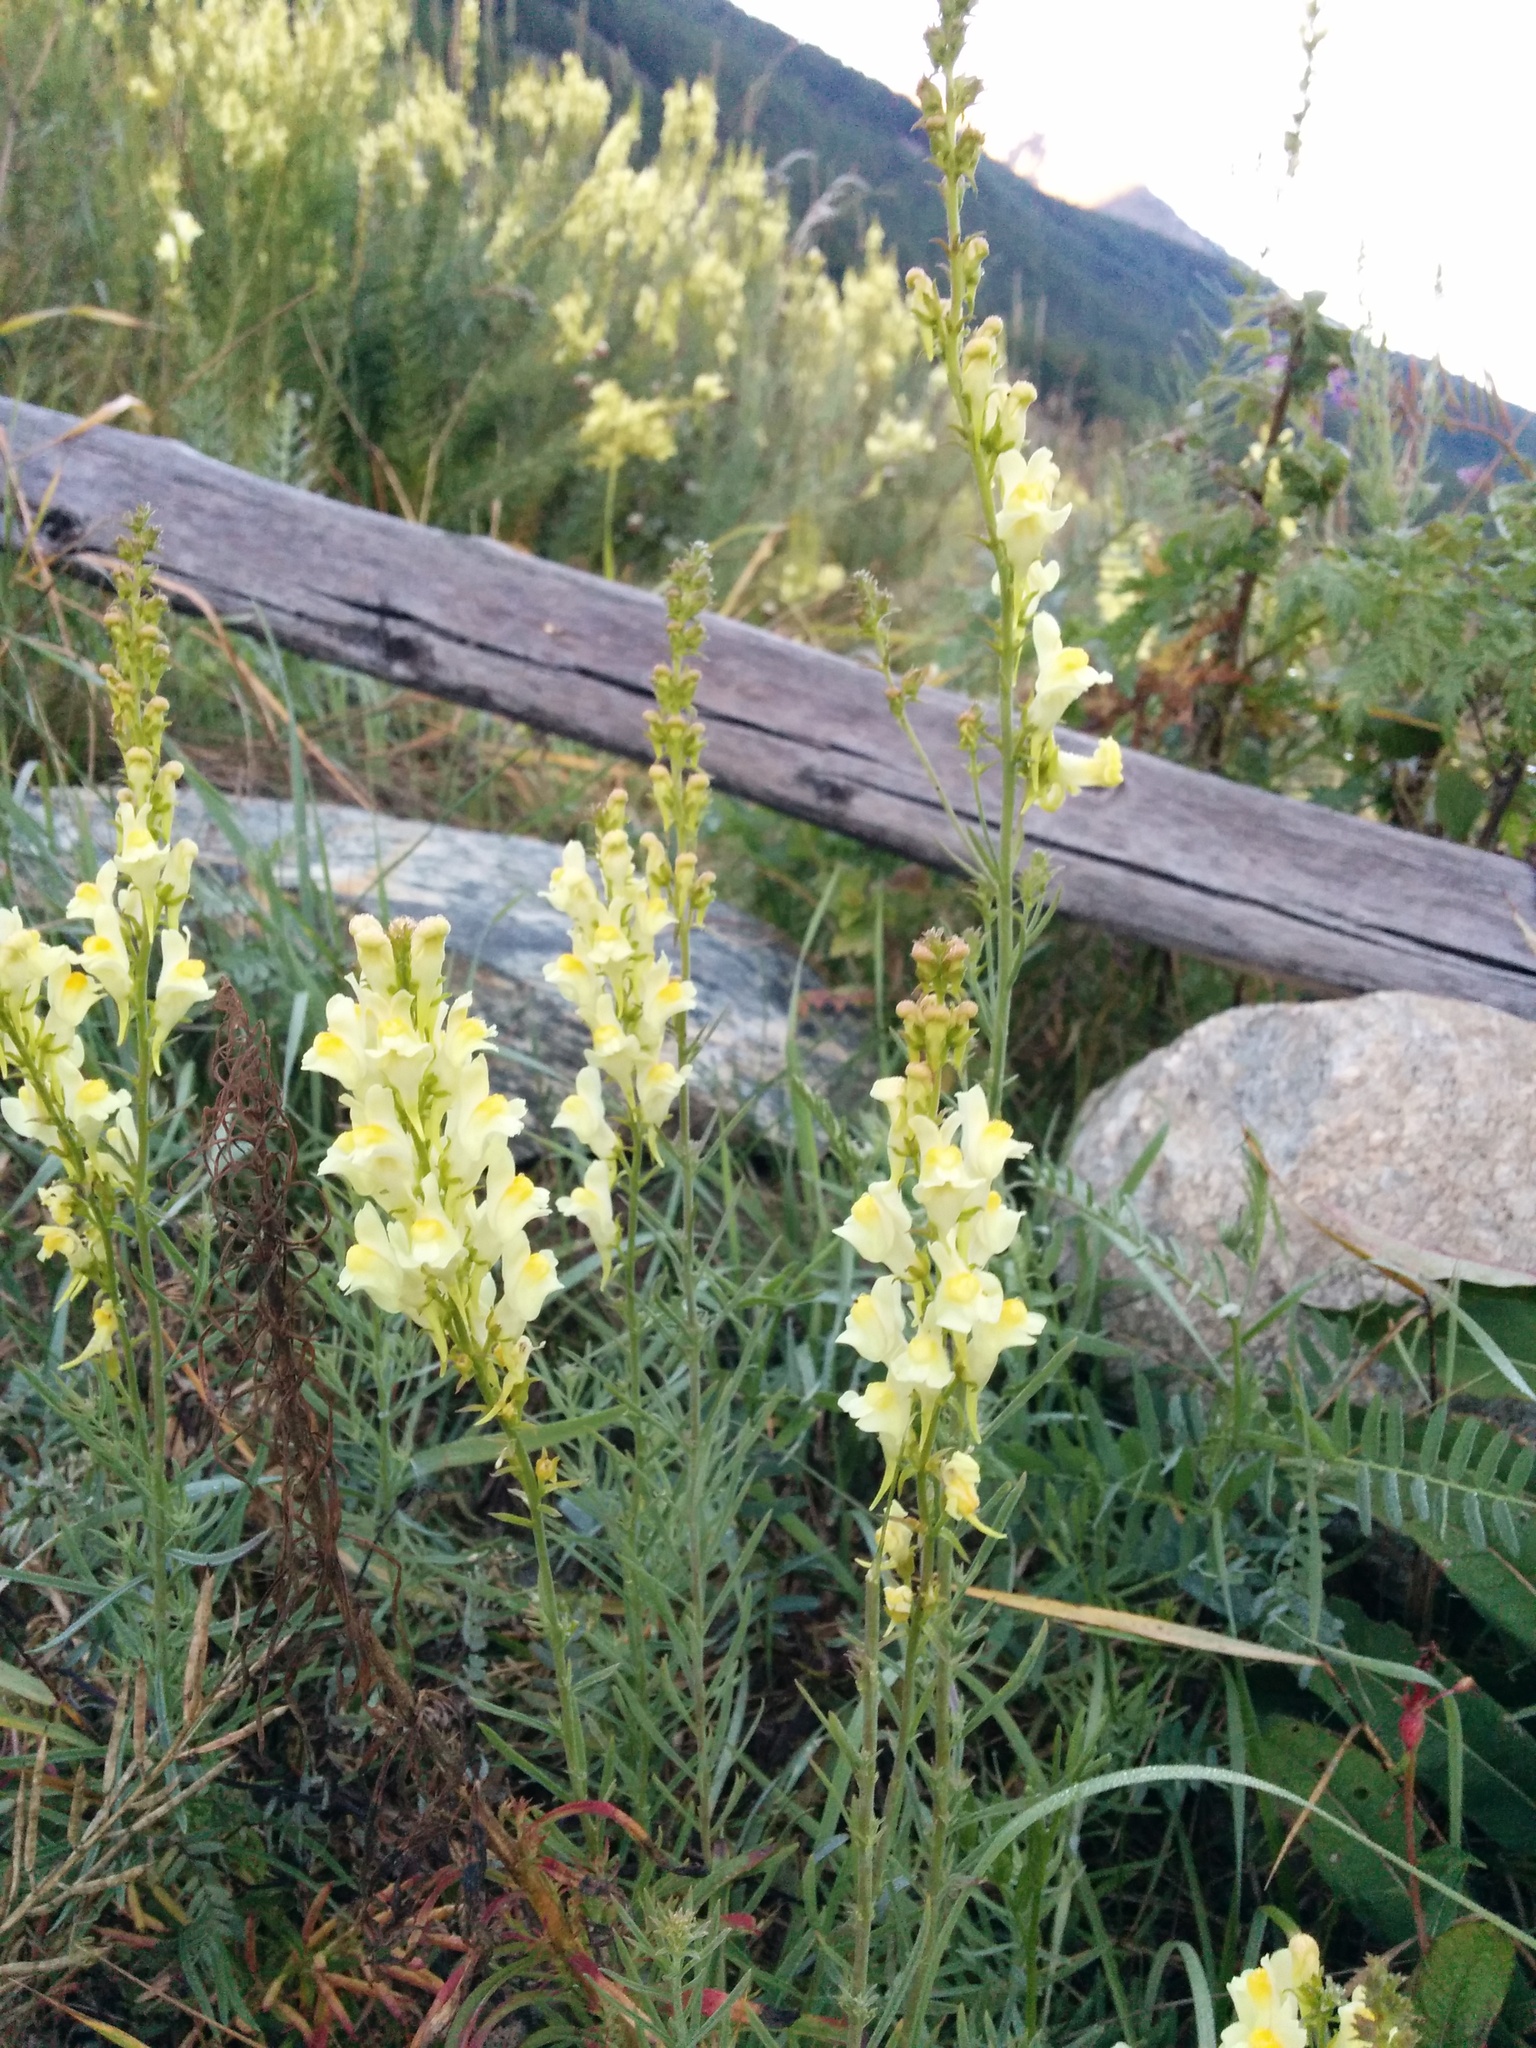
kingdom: Plantae
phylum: Tracheophyta
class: Magnoliopsida
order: Lamiales
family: Plantaginaceae
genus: Linaria
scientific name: Linaria vulgaris
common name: Butter and eggs
